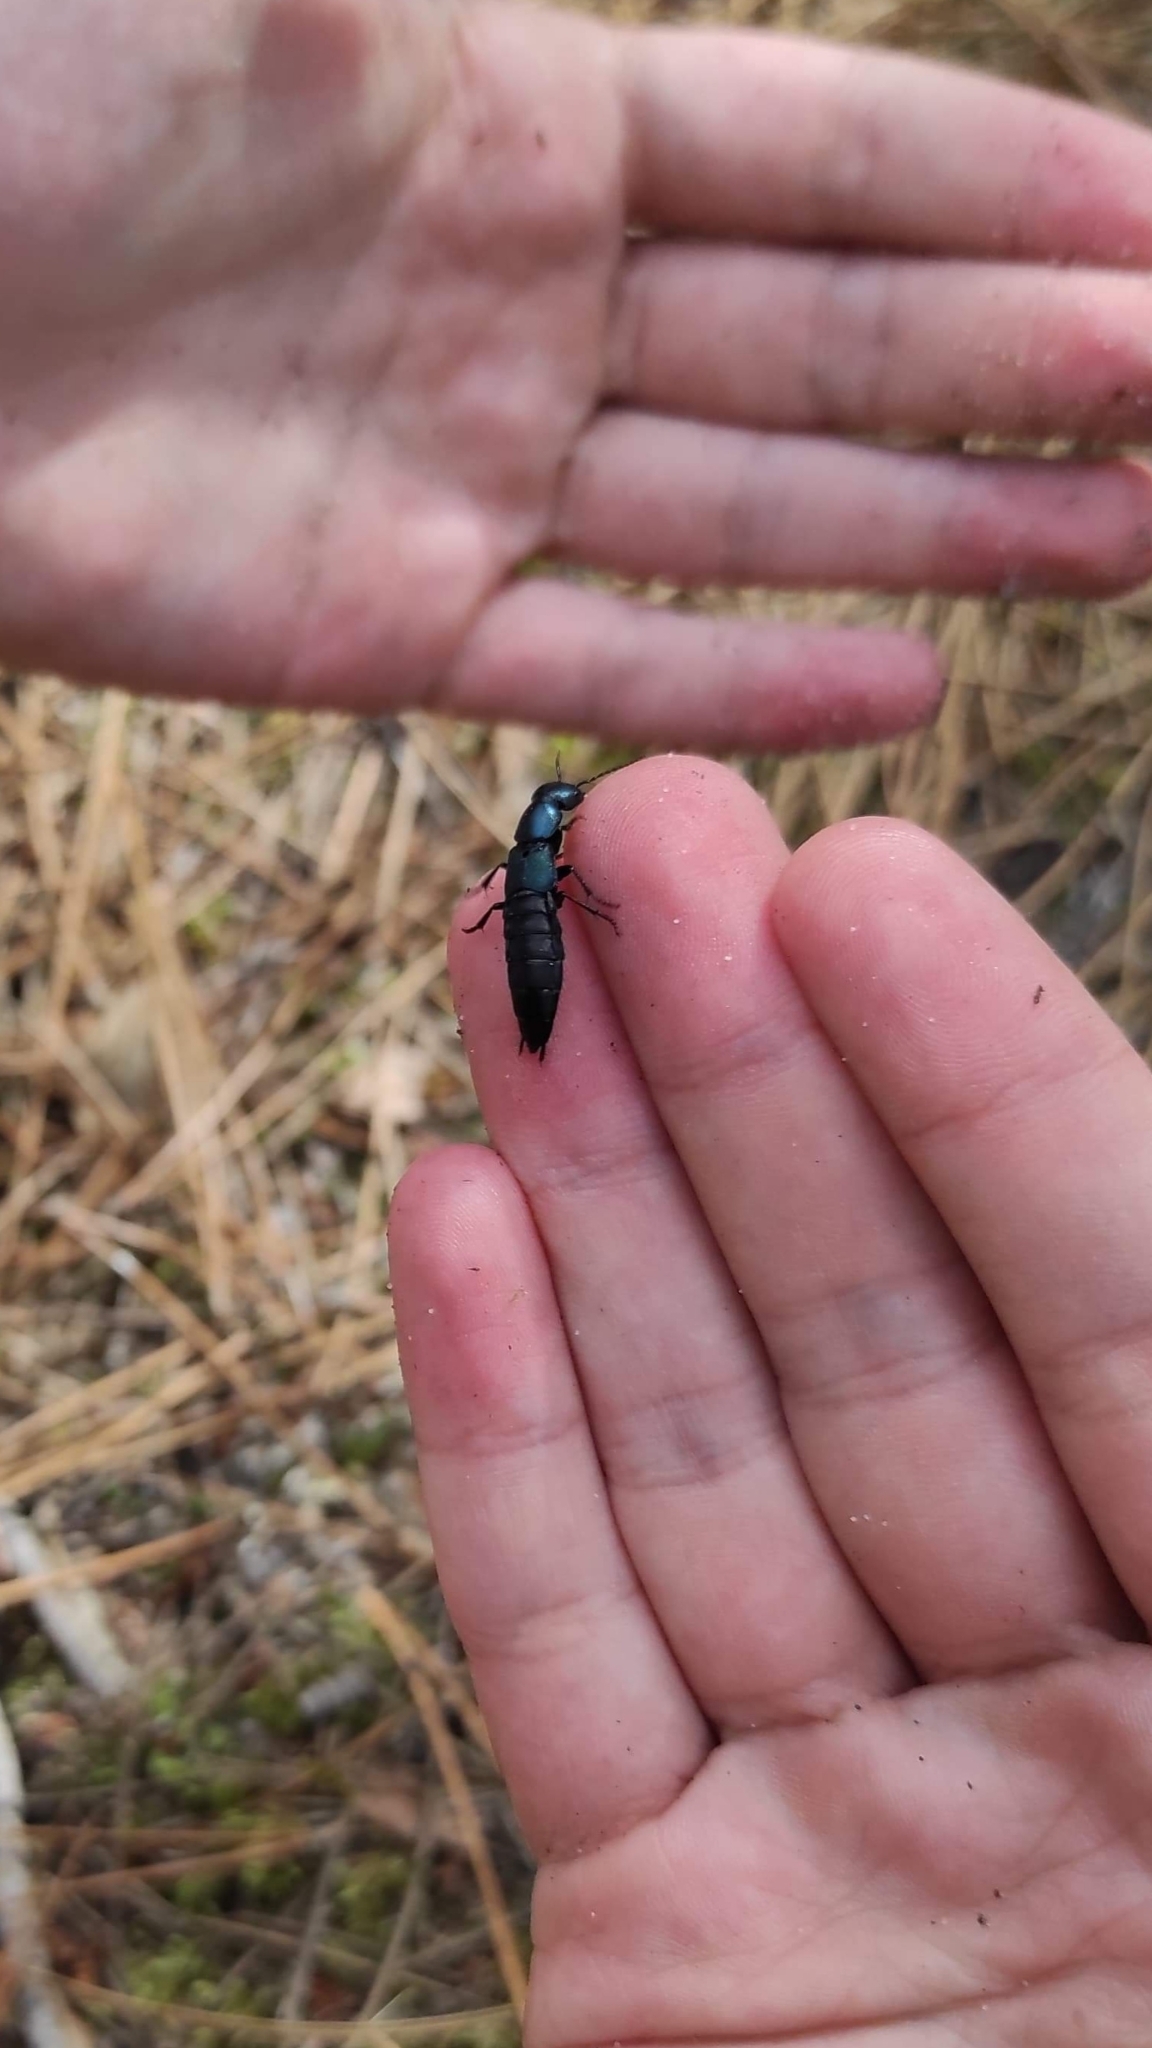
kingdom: Animalia
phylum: Arthropoda
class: Insecta
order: Coleoptera
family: Staphylinidae
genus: Ocypus
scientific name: Ocypus ophthalmicus
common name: Blue rove-beetle
